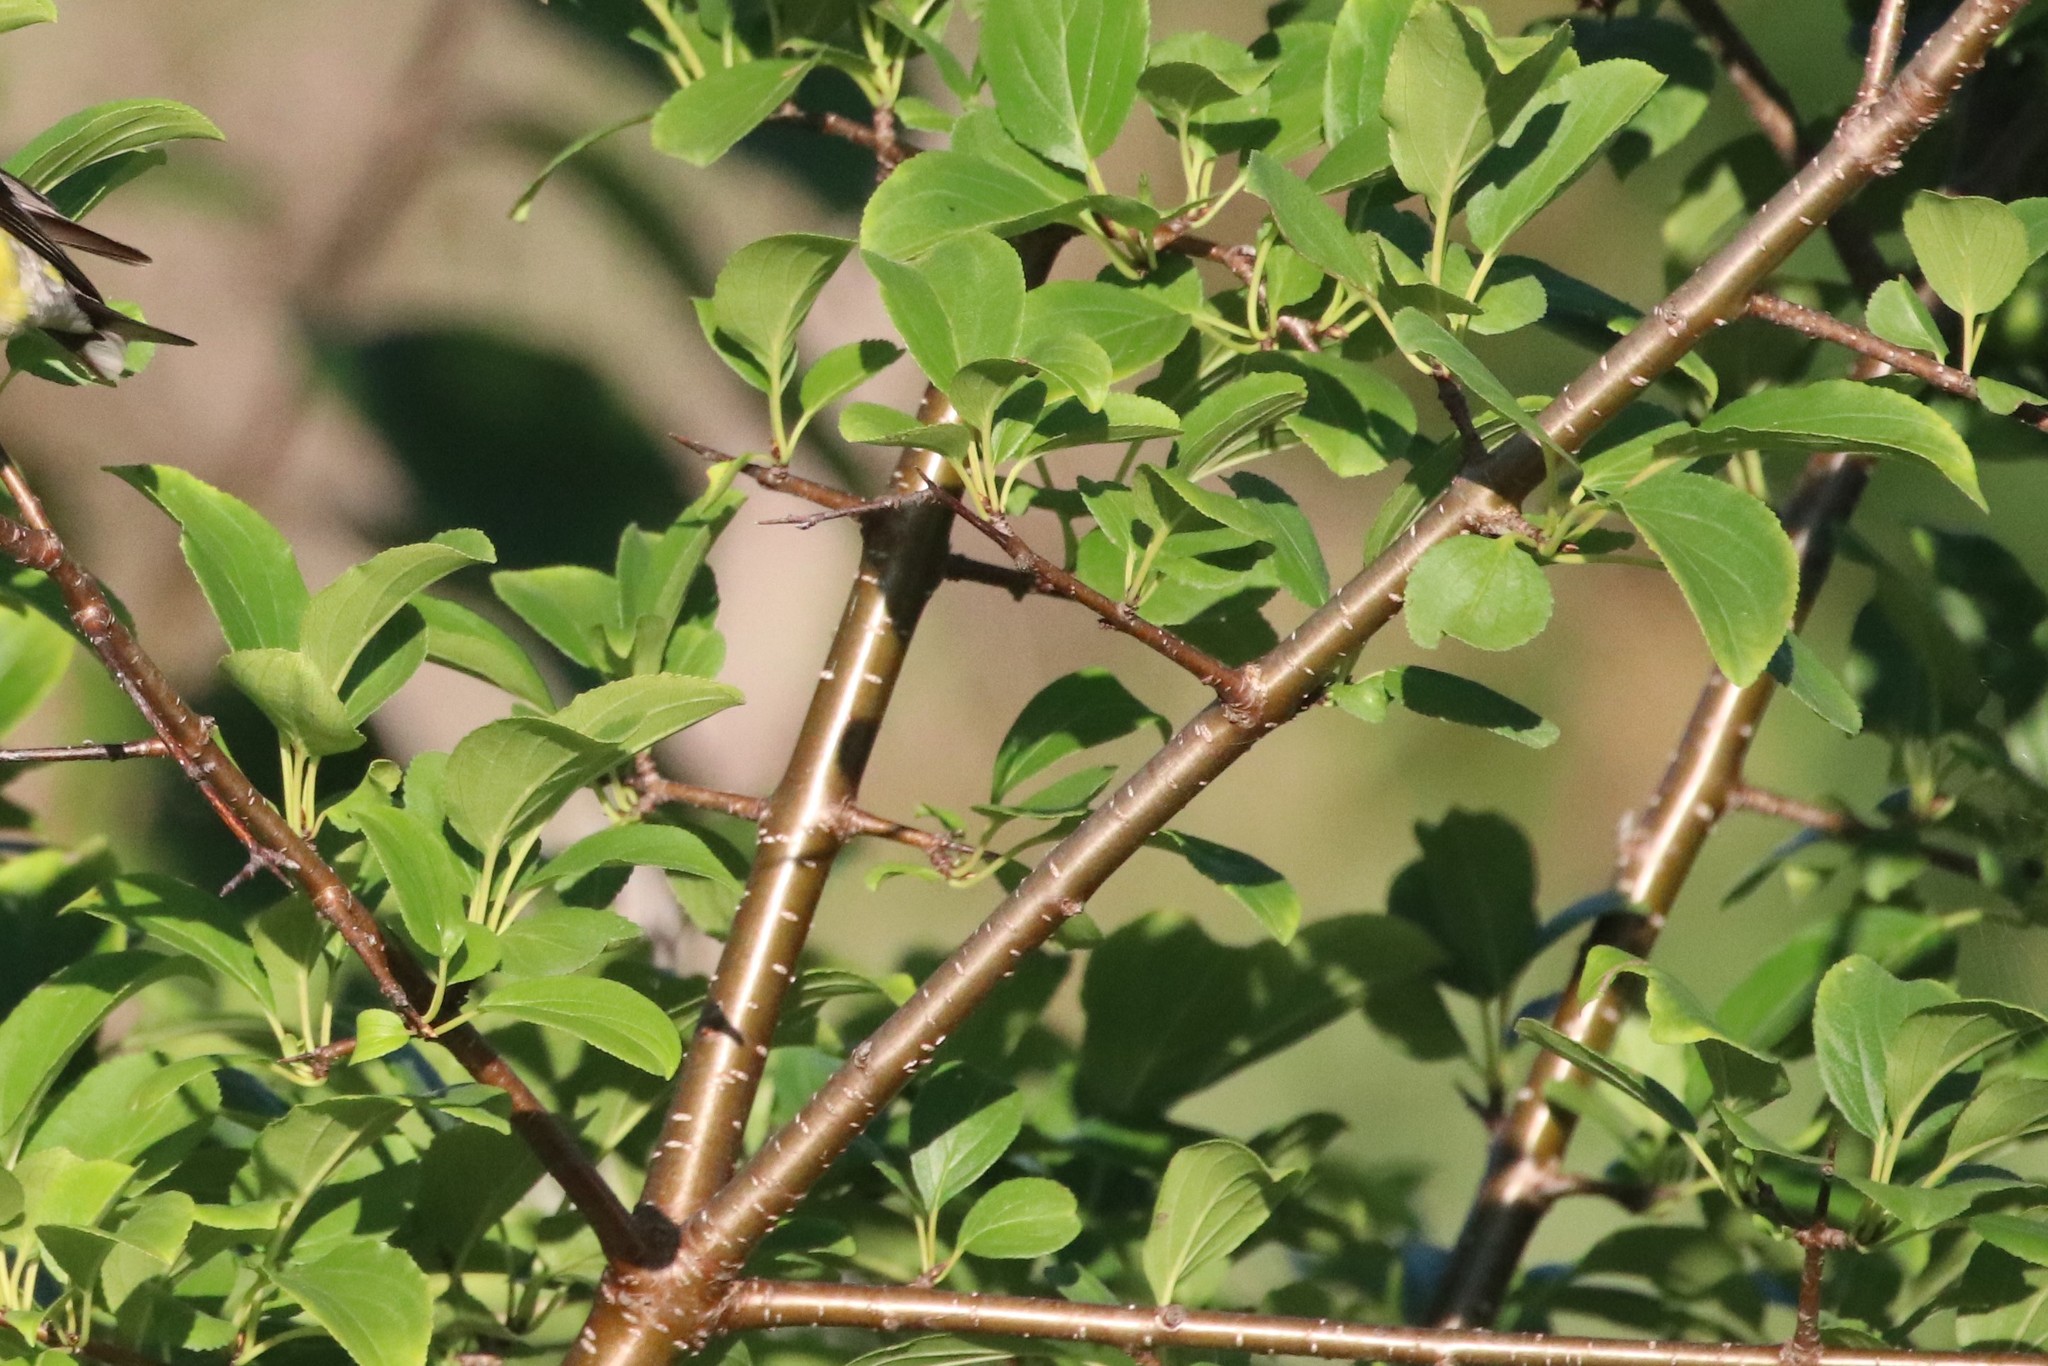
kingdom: Plantae
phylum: Tracheophyta
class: Magnoliopsida
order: Rosales
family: Rhamnaceae
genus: Rhamnus
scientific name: Rhamnus cathartica
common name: Common buckthorn
